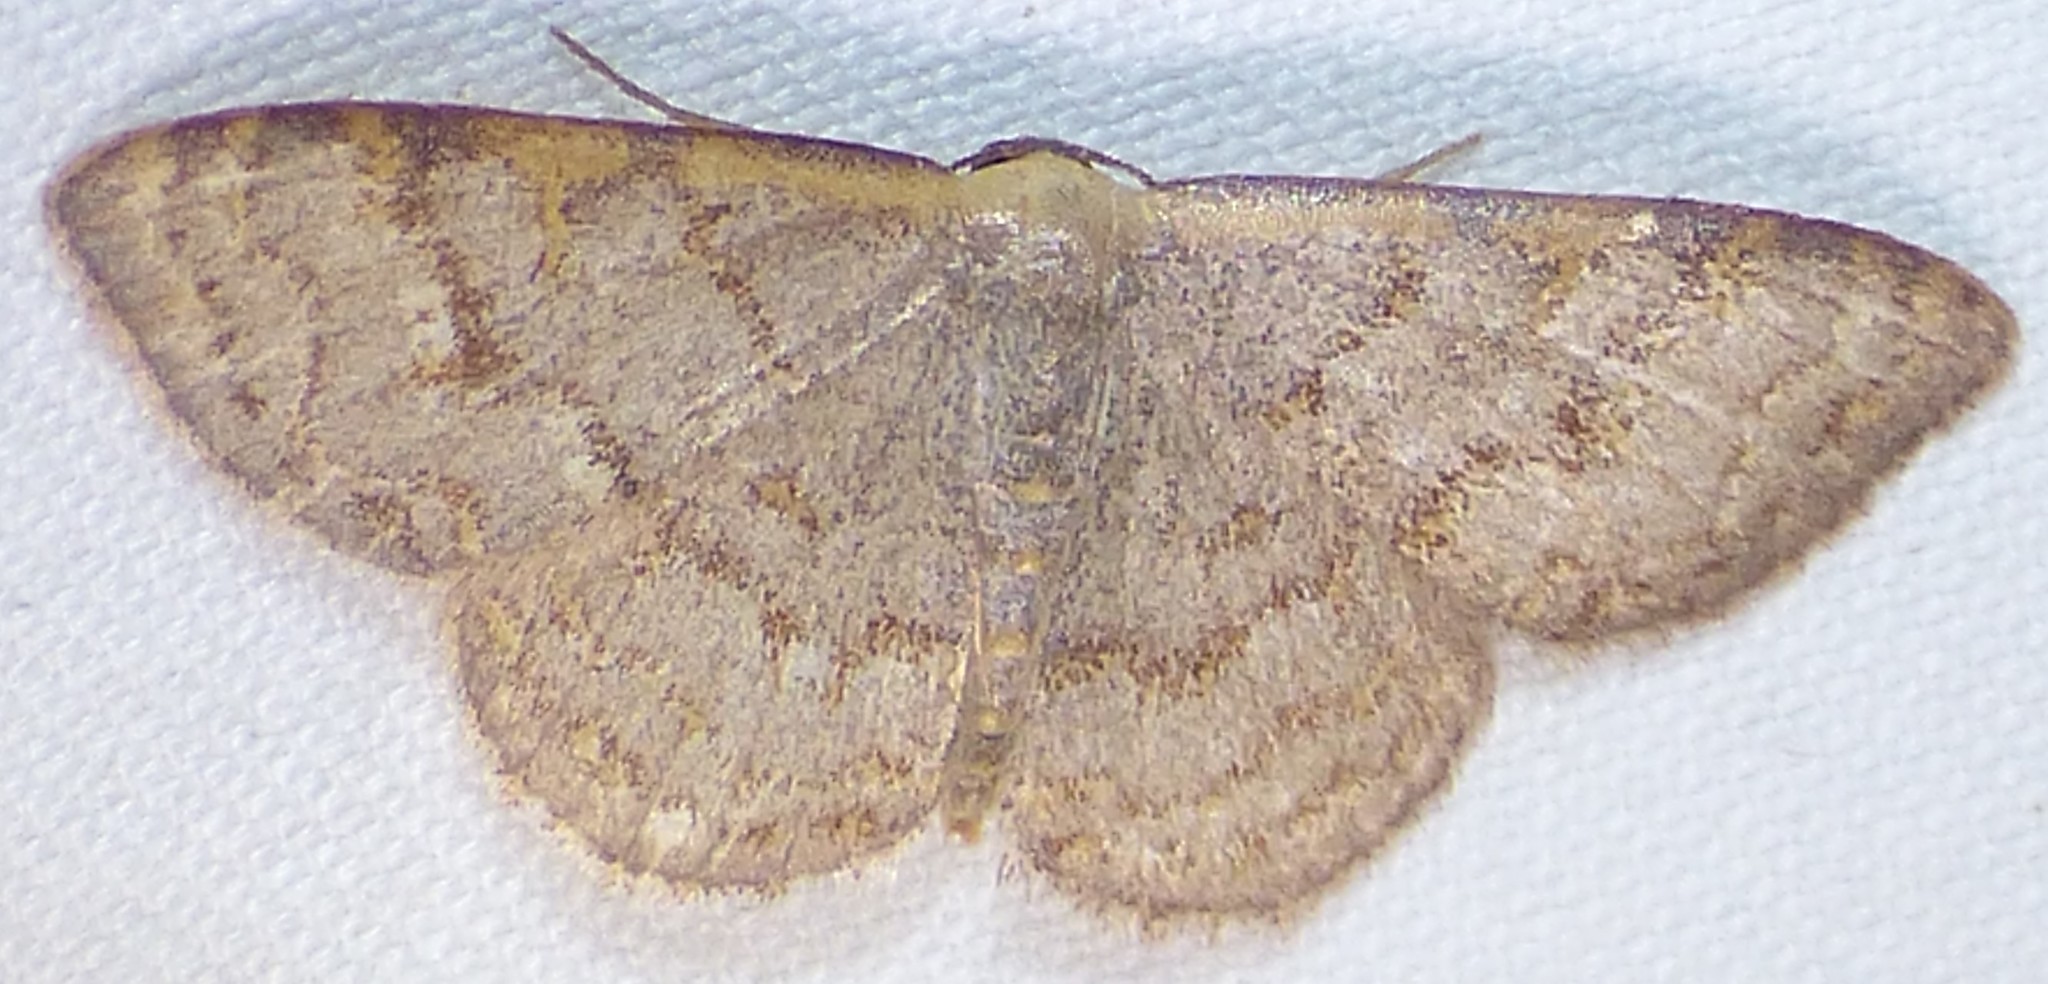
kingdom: Animalia
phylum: Arthropoda
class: Insecta
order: Lepidoptera
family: Geometridae
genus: Leptostales
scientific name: Leptostales pannaria
